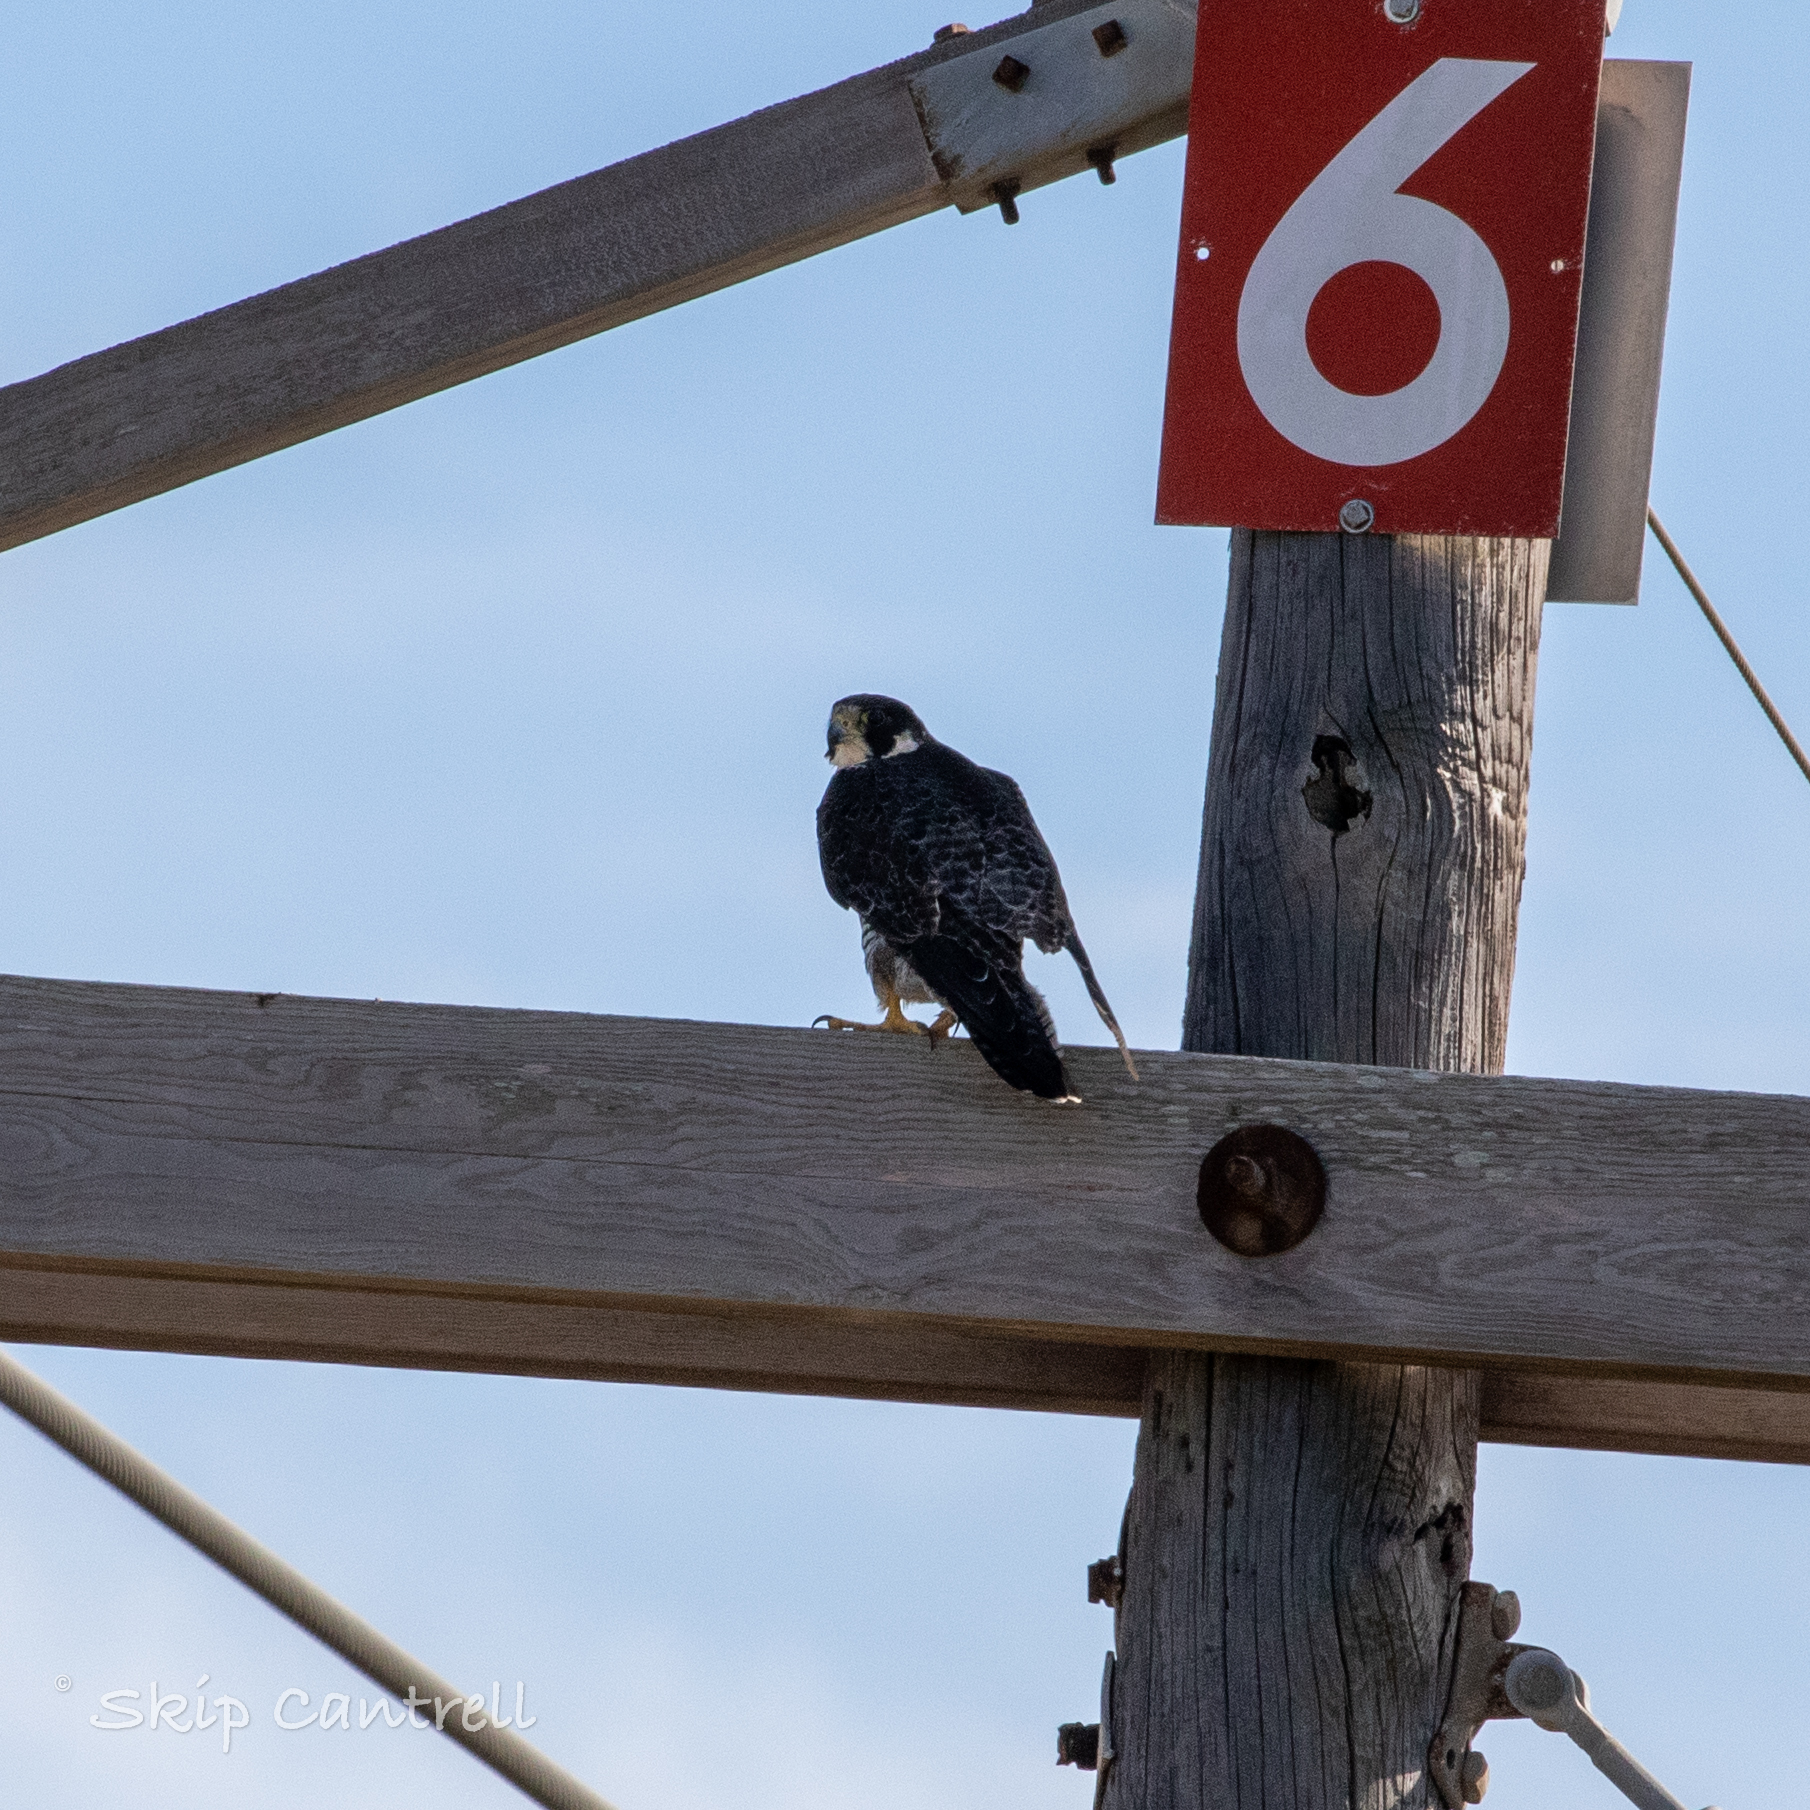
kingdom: Animalia
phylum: Chordata
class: Aves
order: Falconiformes
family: Falconidae
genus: Falco
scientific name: Falco peregrinus
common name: Peregrine falcon
